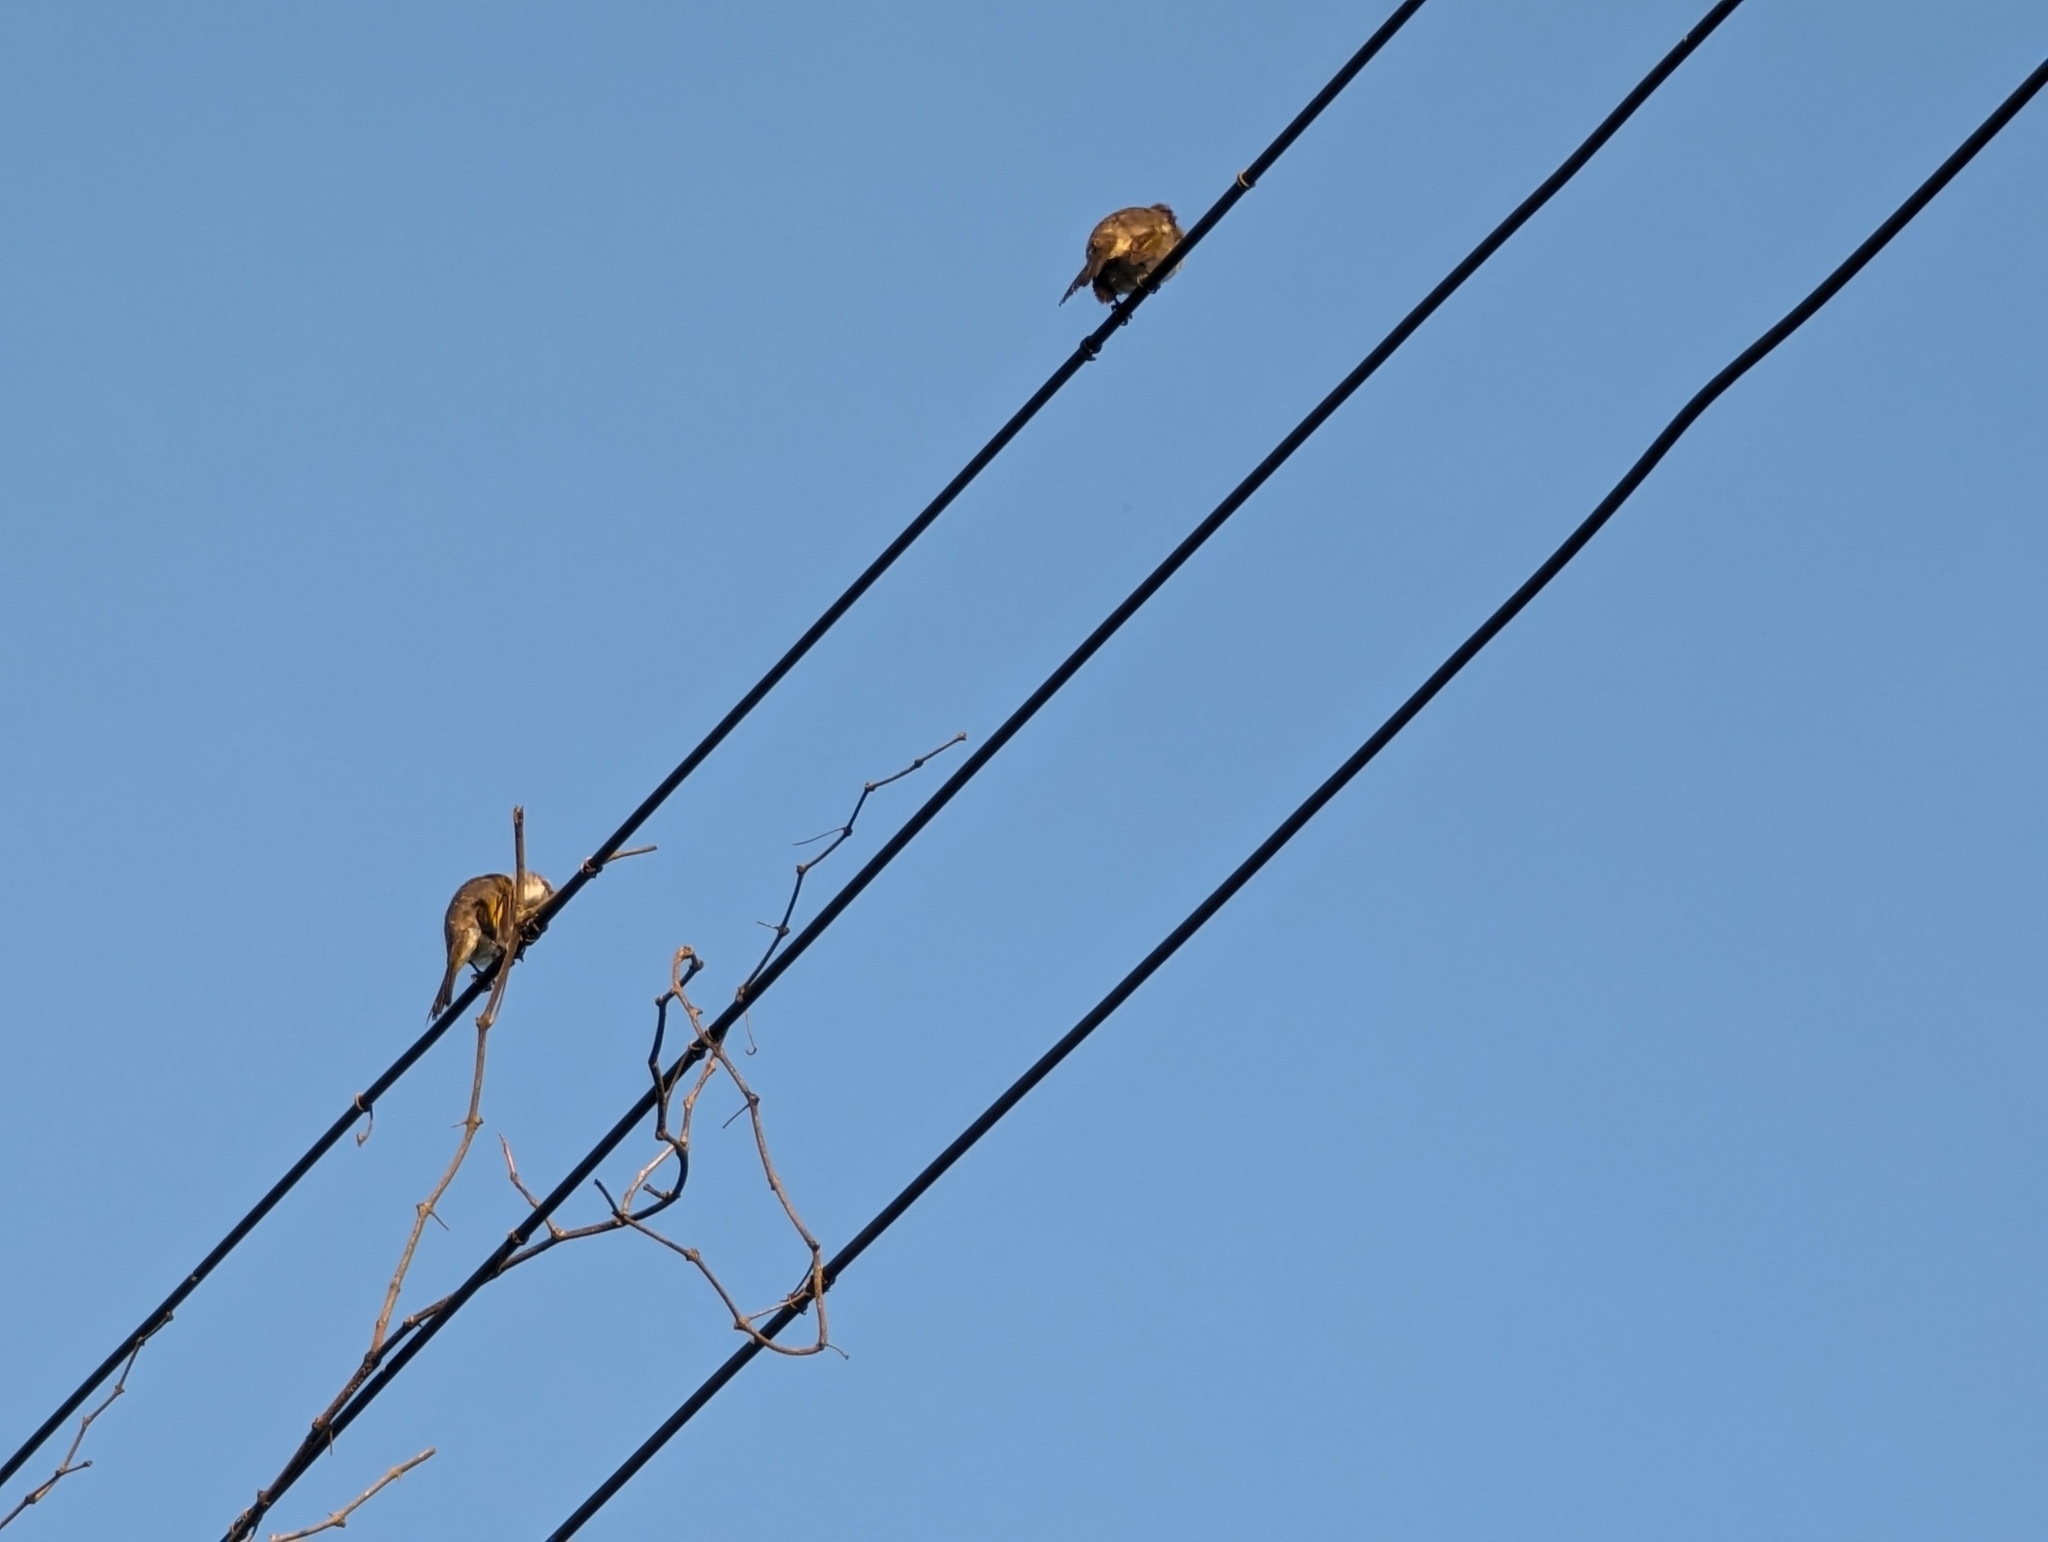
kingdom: Animalia
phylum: Chordata
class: Aves
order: Passeriformes
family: Pycnonotidae
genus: Pycnonotus
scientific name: Pycnonotus sinensis
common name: Light-vented bulbul
